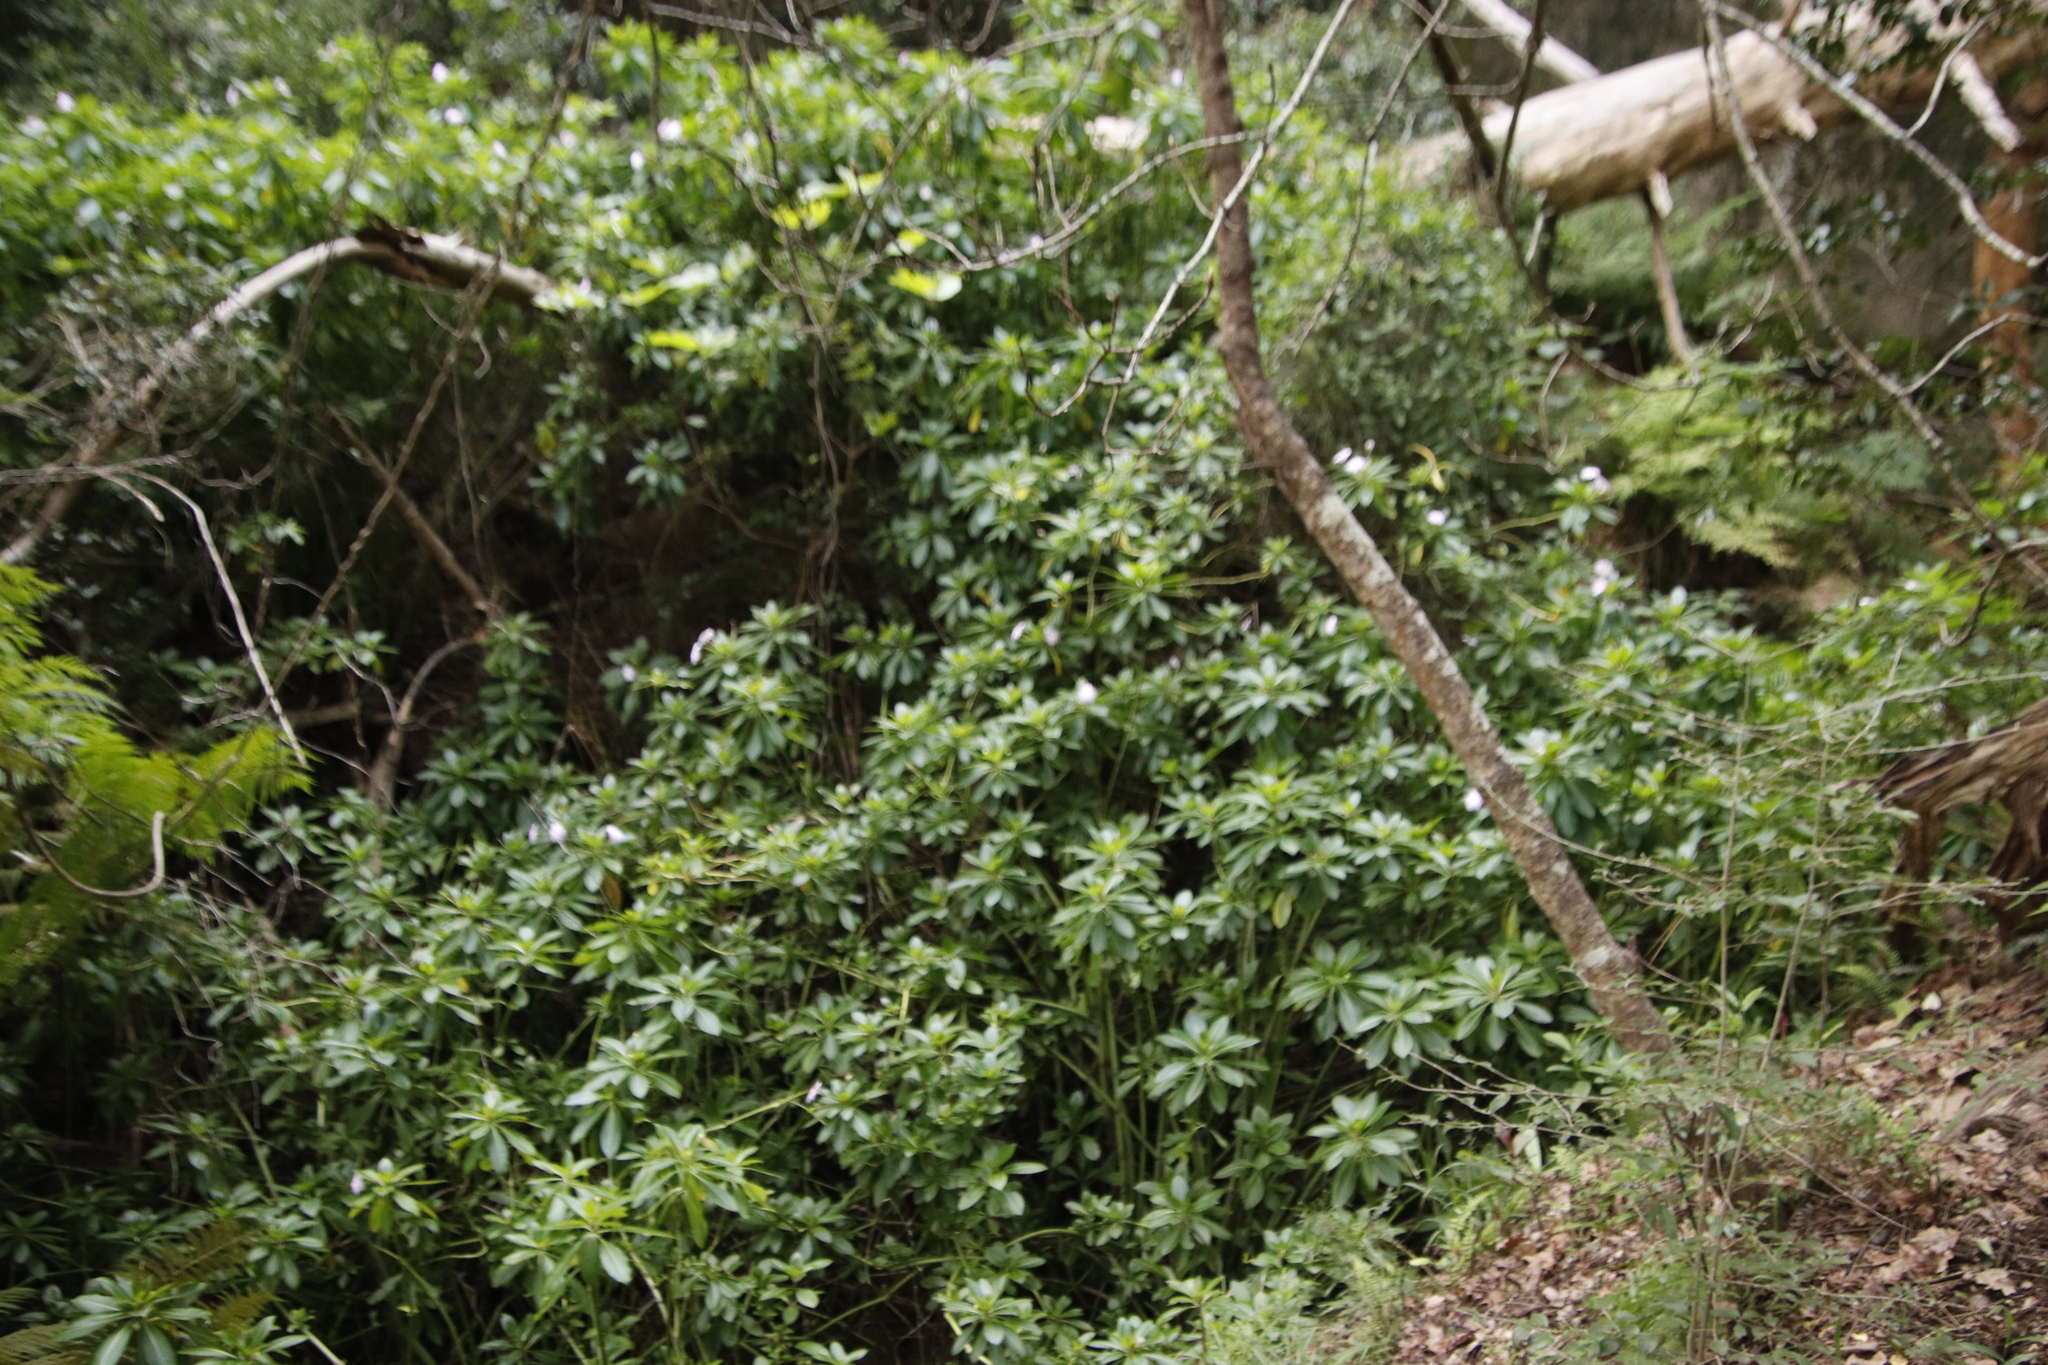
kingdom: Plantae
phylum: Tracheophyta
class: Magnoliopsida
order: Ericales
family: Balsaminaceae
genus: Impatiens
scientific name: Impatiens sodenii
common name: Oliver's touch-me-not
